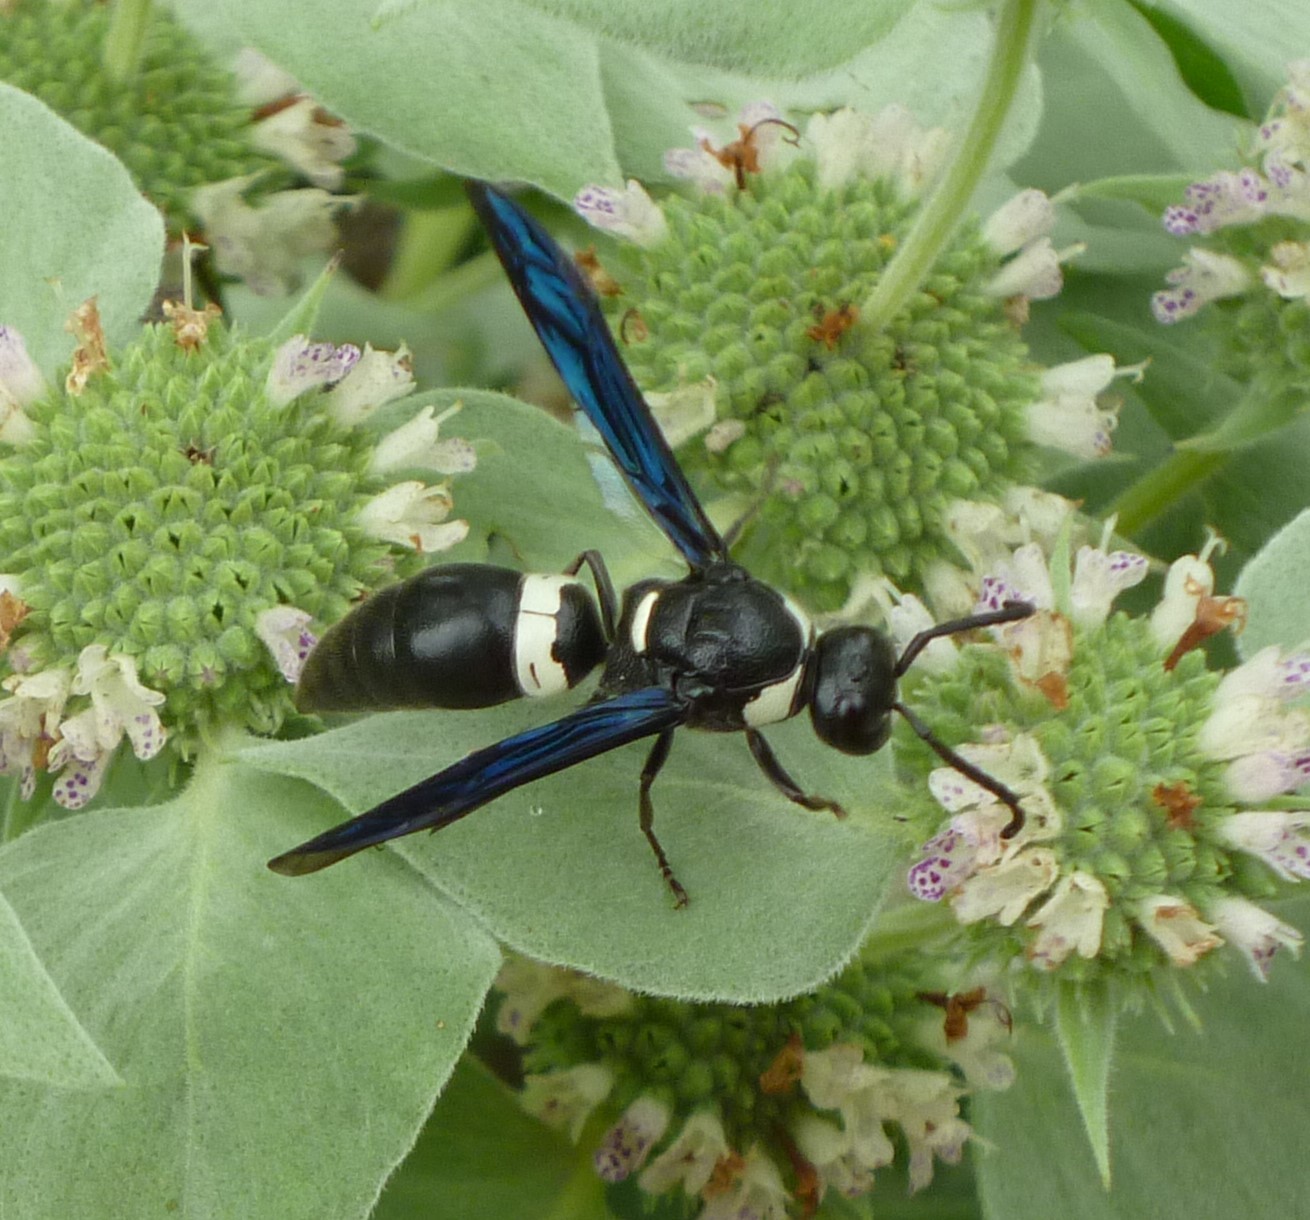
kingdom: Animalia
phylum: Arthropoda
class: Insecta
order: Hymenoptera
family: Eumenidae
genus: Monobia
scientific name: Monobia quadridens
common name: Four-toothed mason wasp
